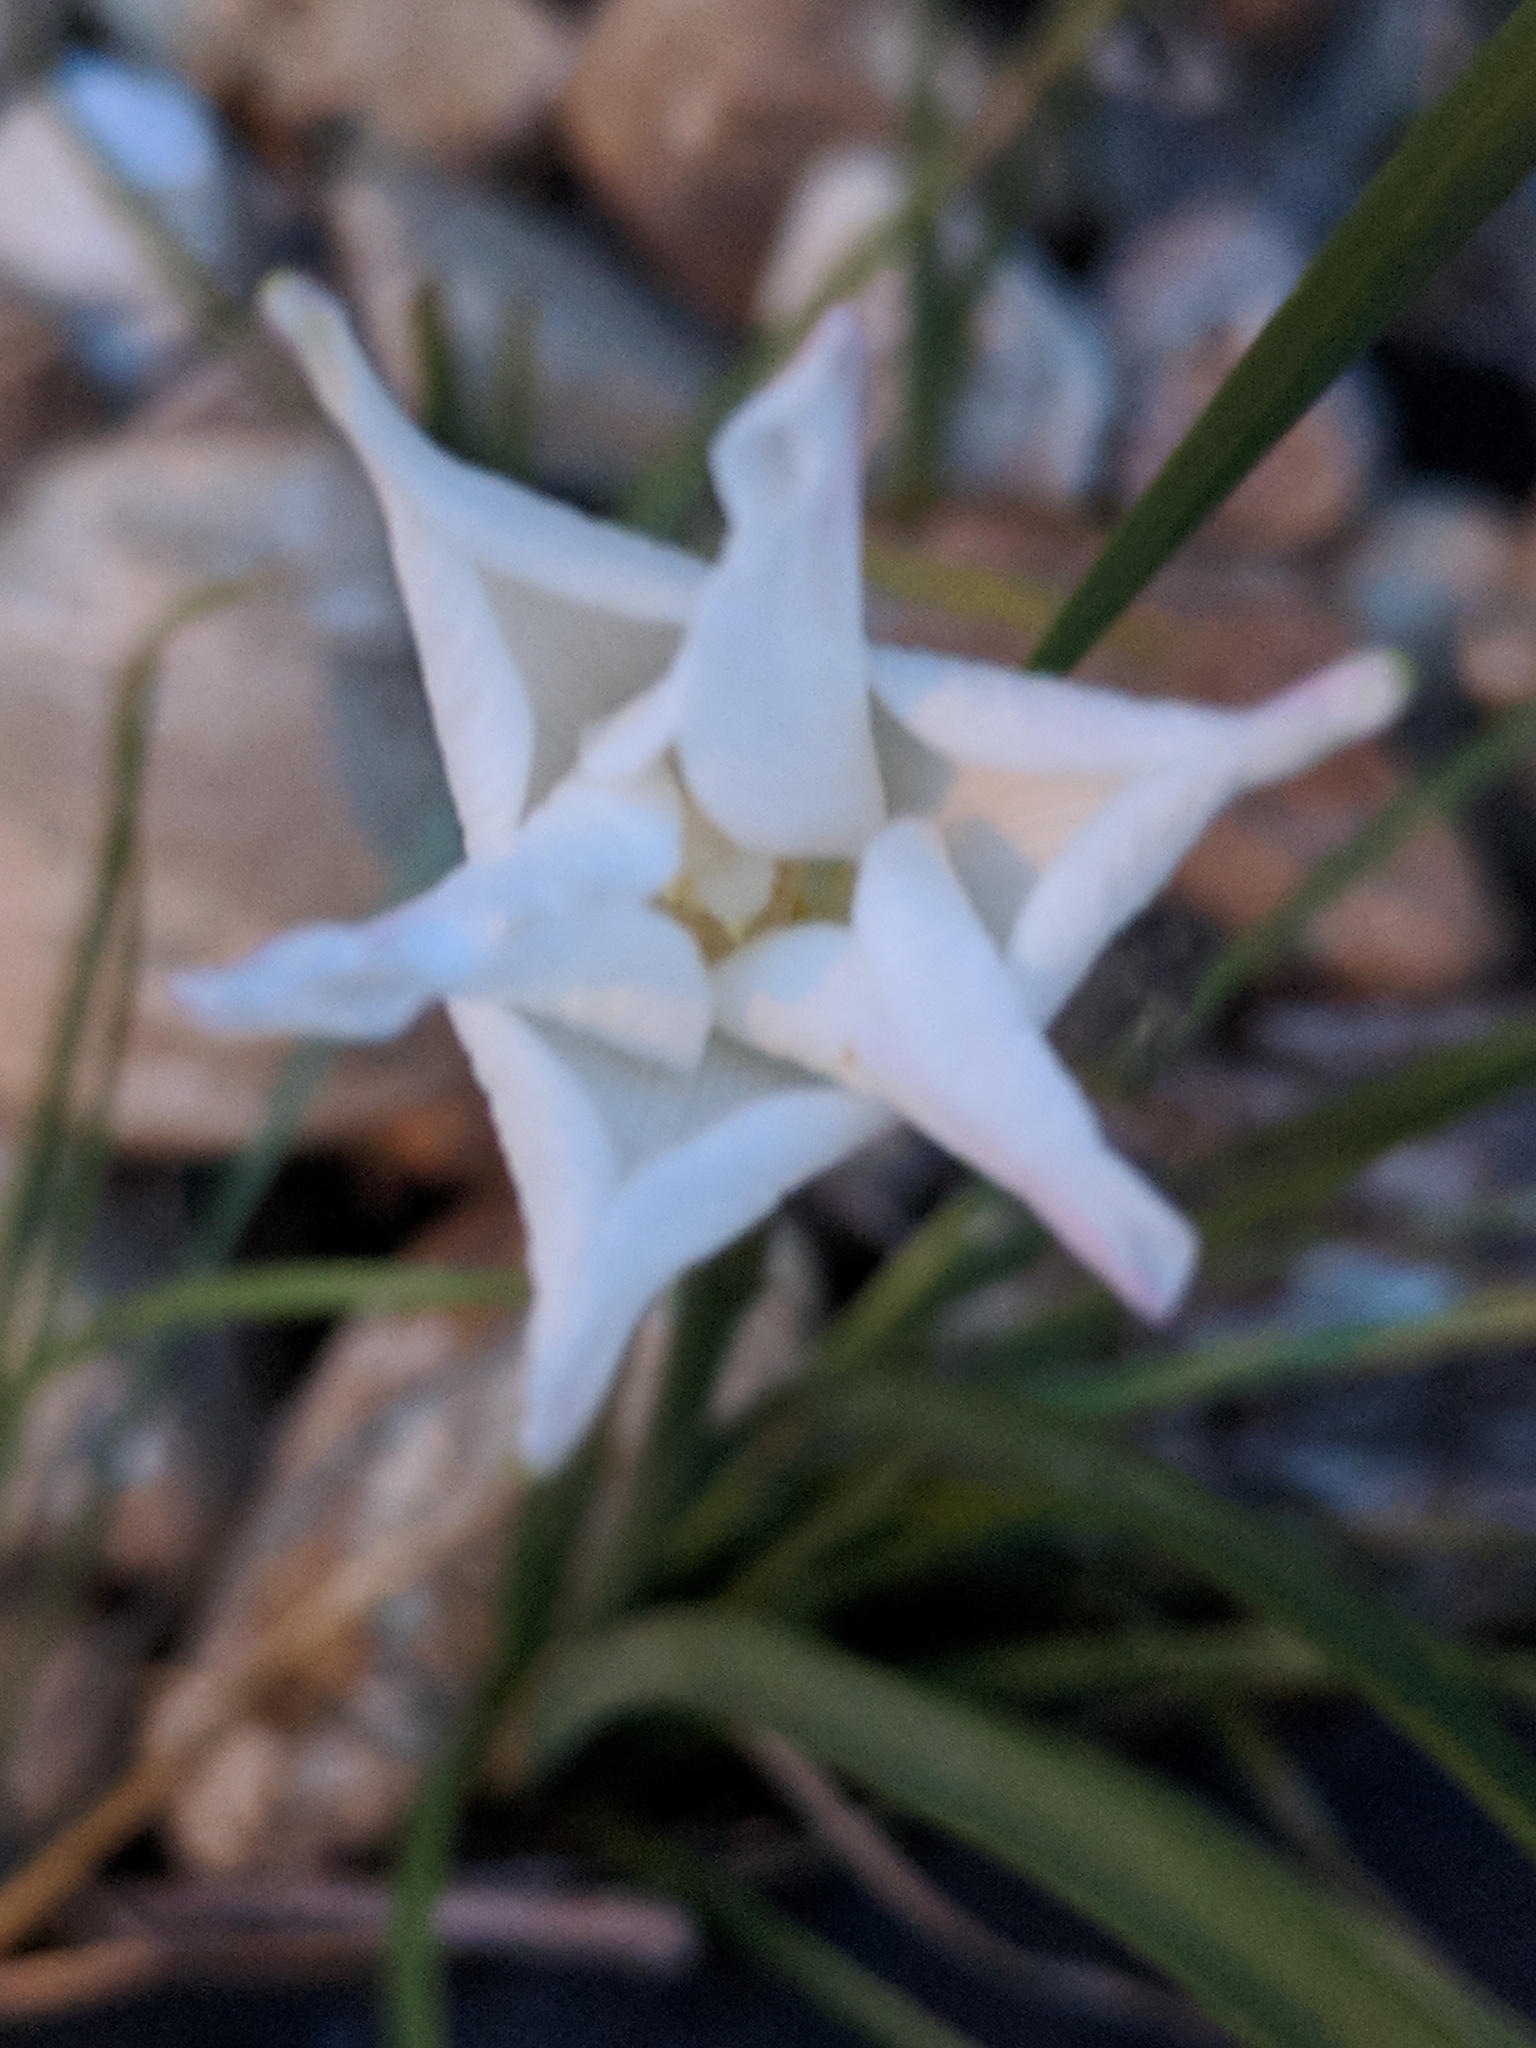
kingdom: Plantae
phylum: Tracheophyta
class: Liliopsida
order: Asparagales
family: Amaryllidaceae
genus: Zephyranthes
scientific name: Zephyranthes chlorosolen
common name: Evening rain-lily
